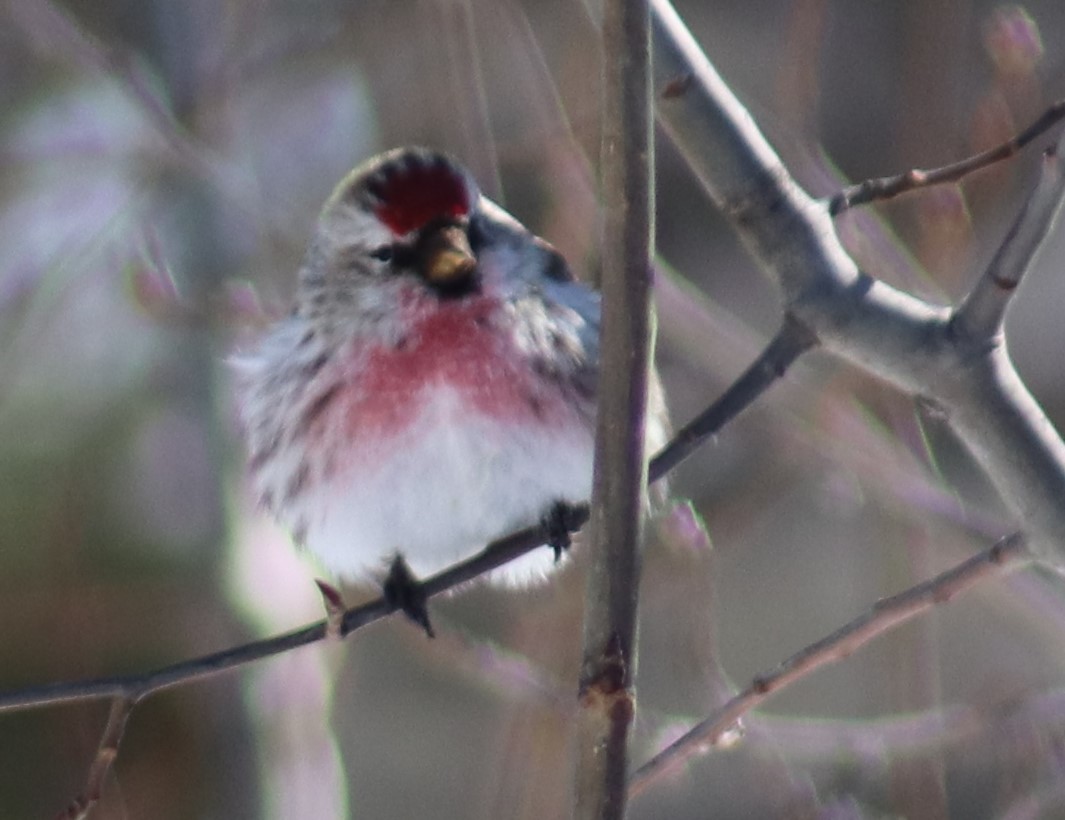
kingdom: Animalia
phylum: Chordata
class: Aves
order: Passeriformes
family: Fringillidae
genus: Acanthis
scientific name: Acanthis flammea
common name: Common redpoll
